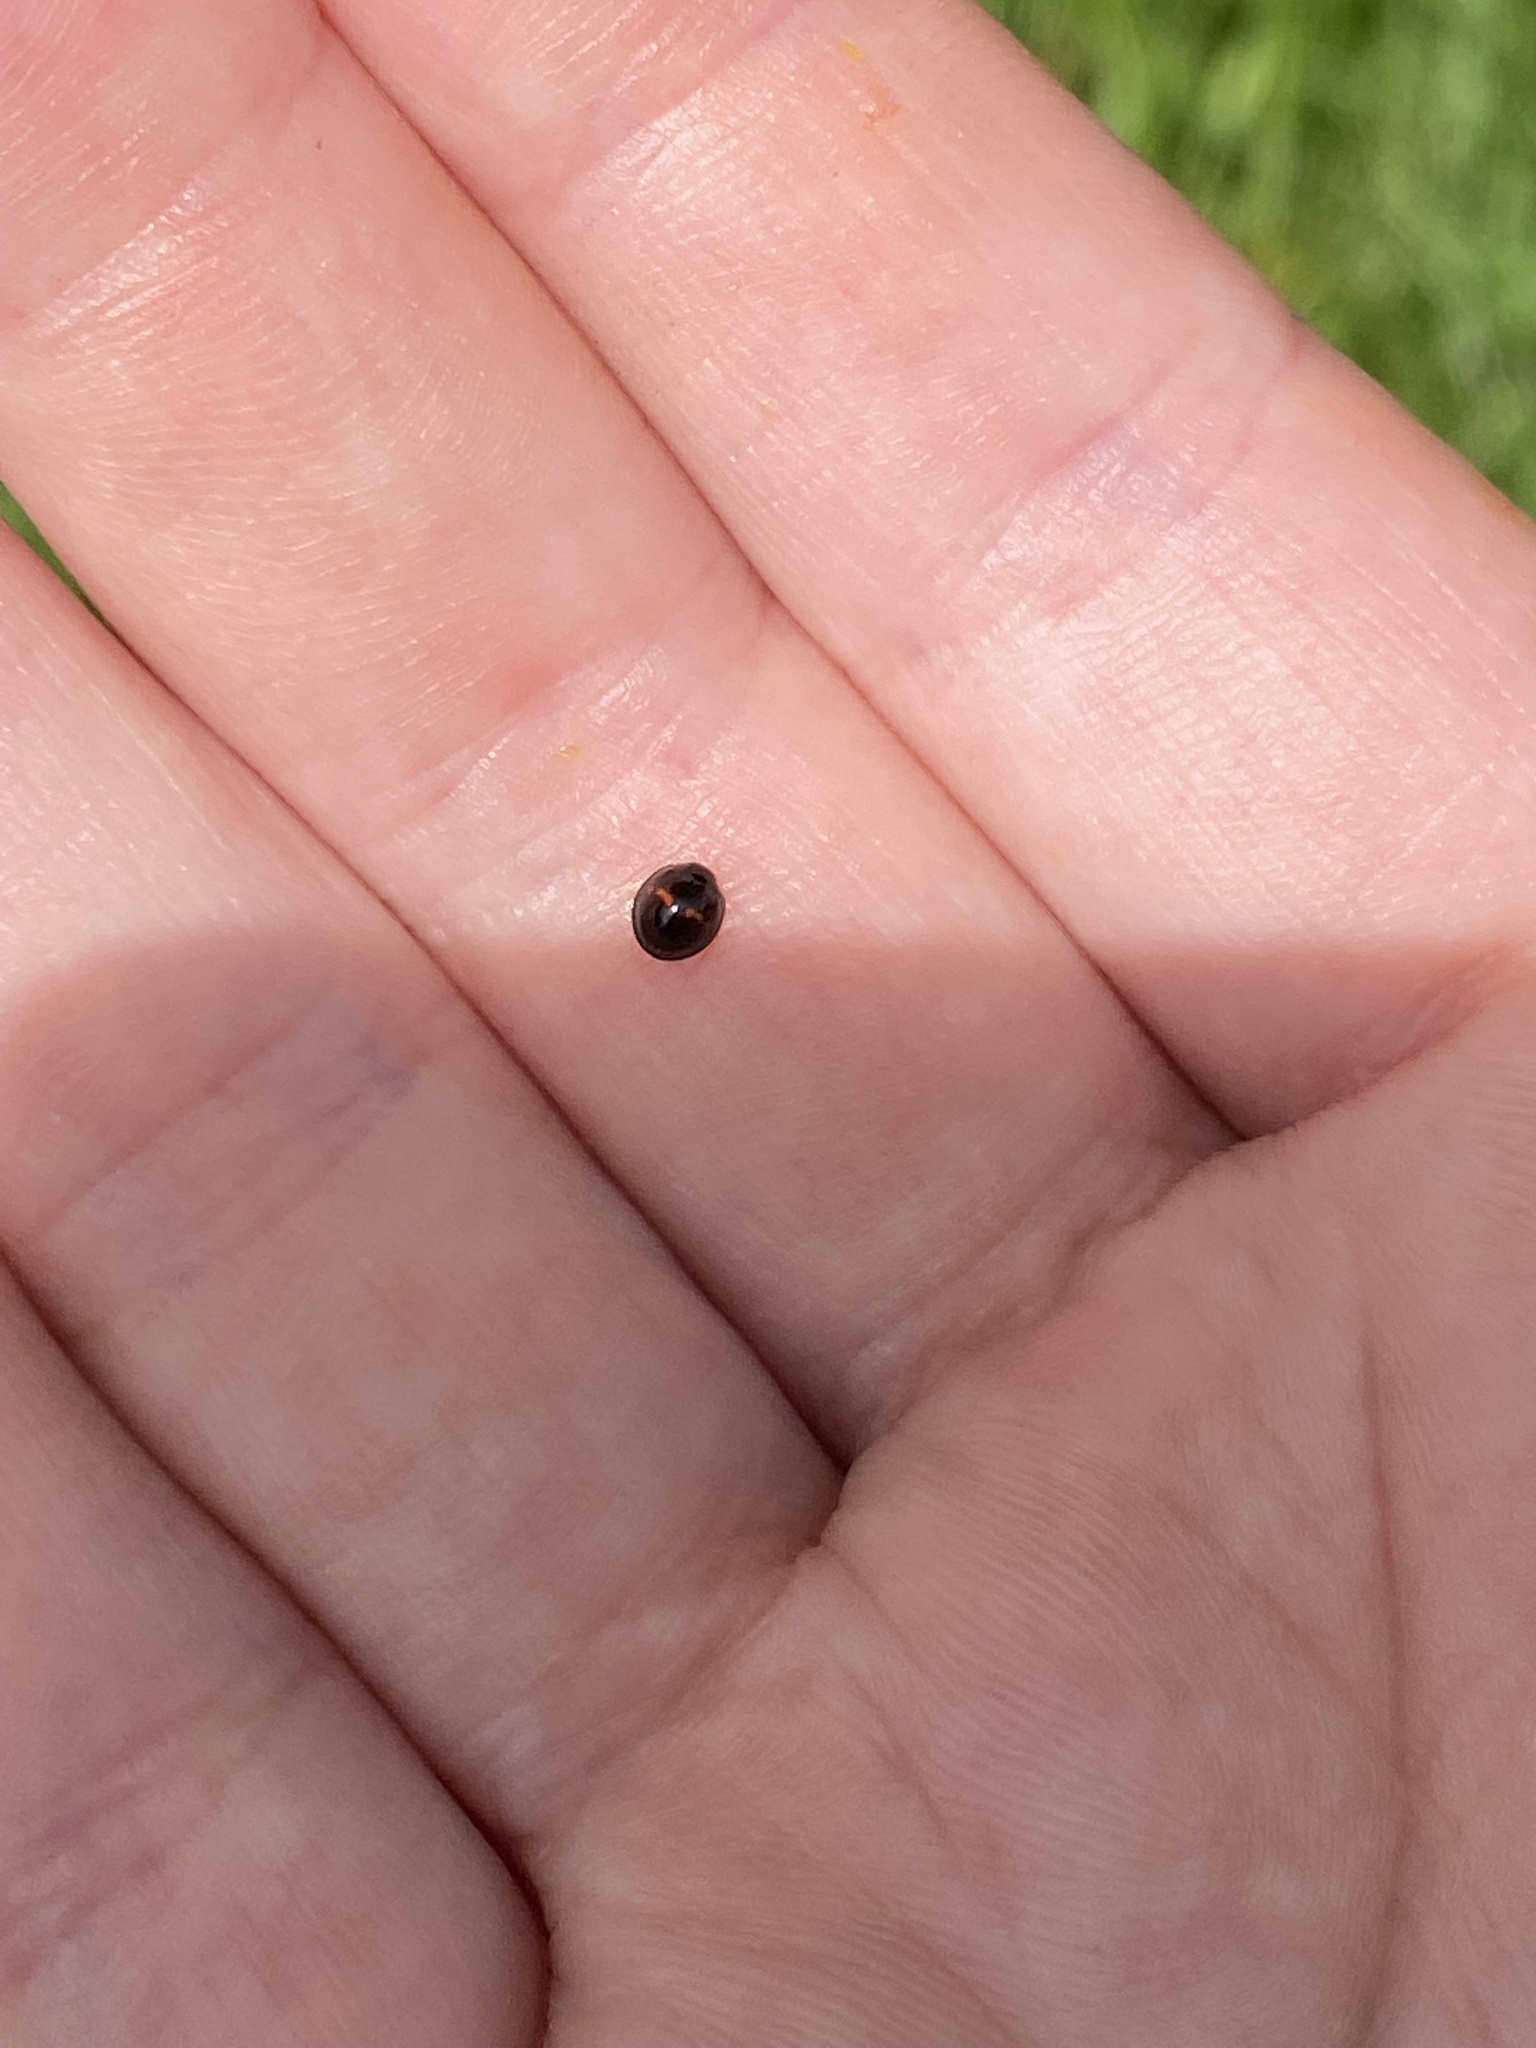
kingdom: Animalia
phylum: Arthropoda
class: Insecta
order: Coleoptera
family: Coccinellidae
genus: Chilocorus
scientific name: Chilocorus bipustulatus
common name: Heather ladybird
